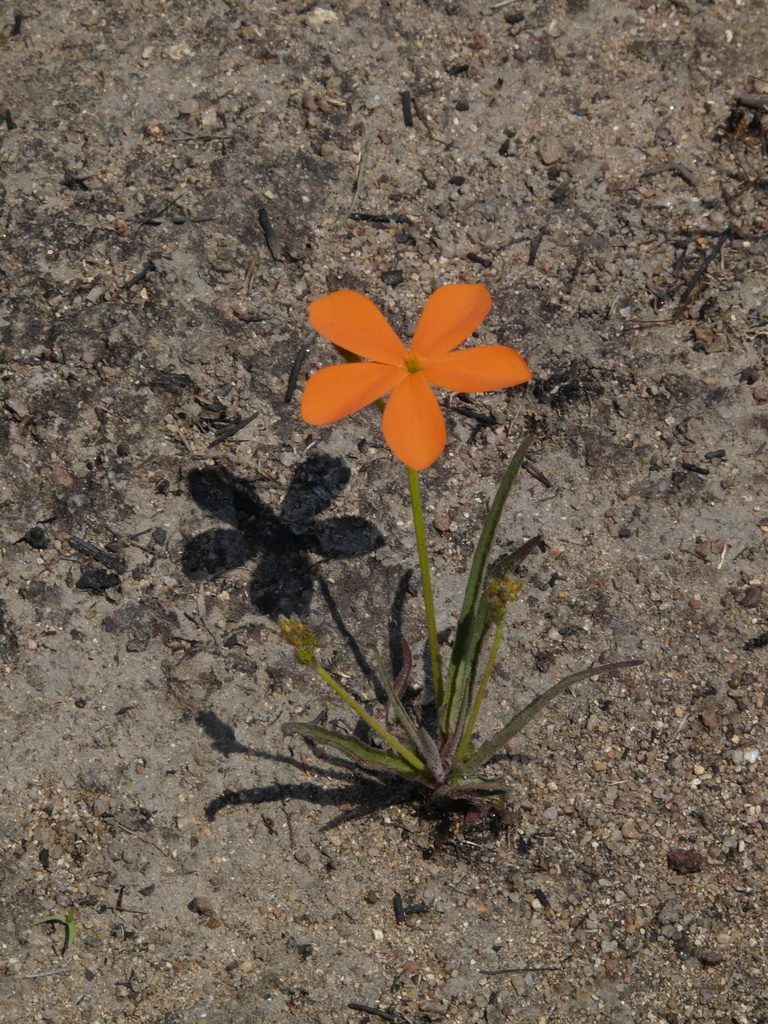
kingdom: Plantae
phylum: Tracheophyta
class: Magnoliopsida
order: Malpighiales
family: Turneraceae
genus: Tricliceras
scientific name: Tricliceras longepedunculatum
